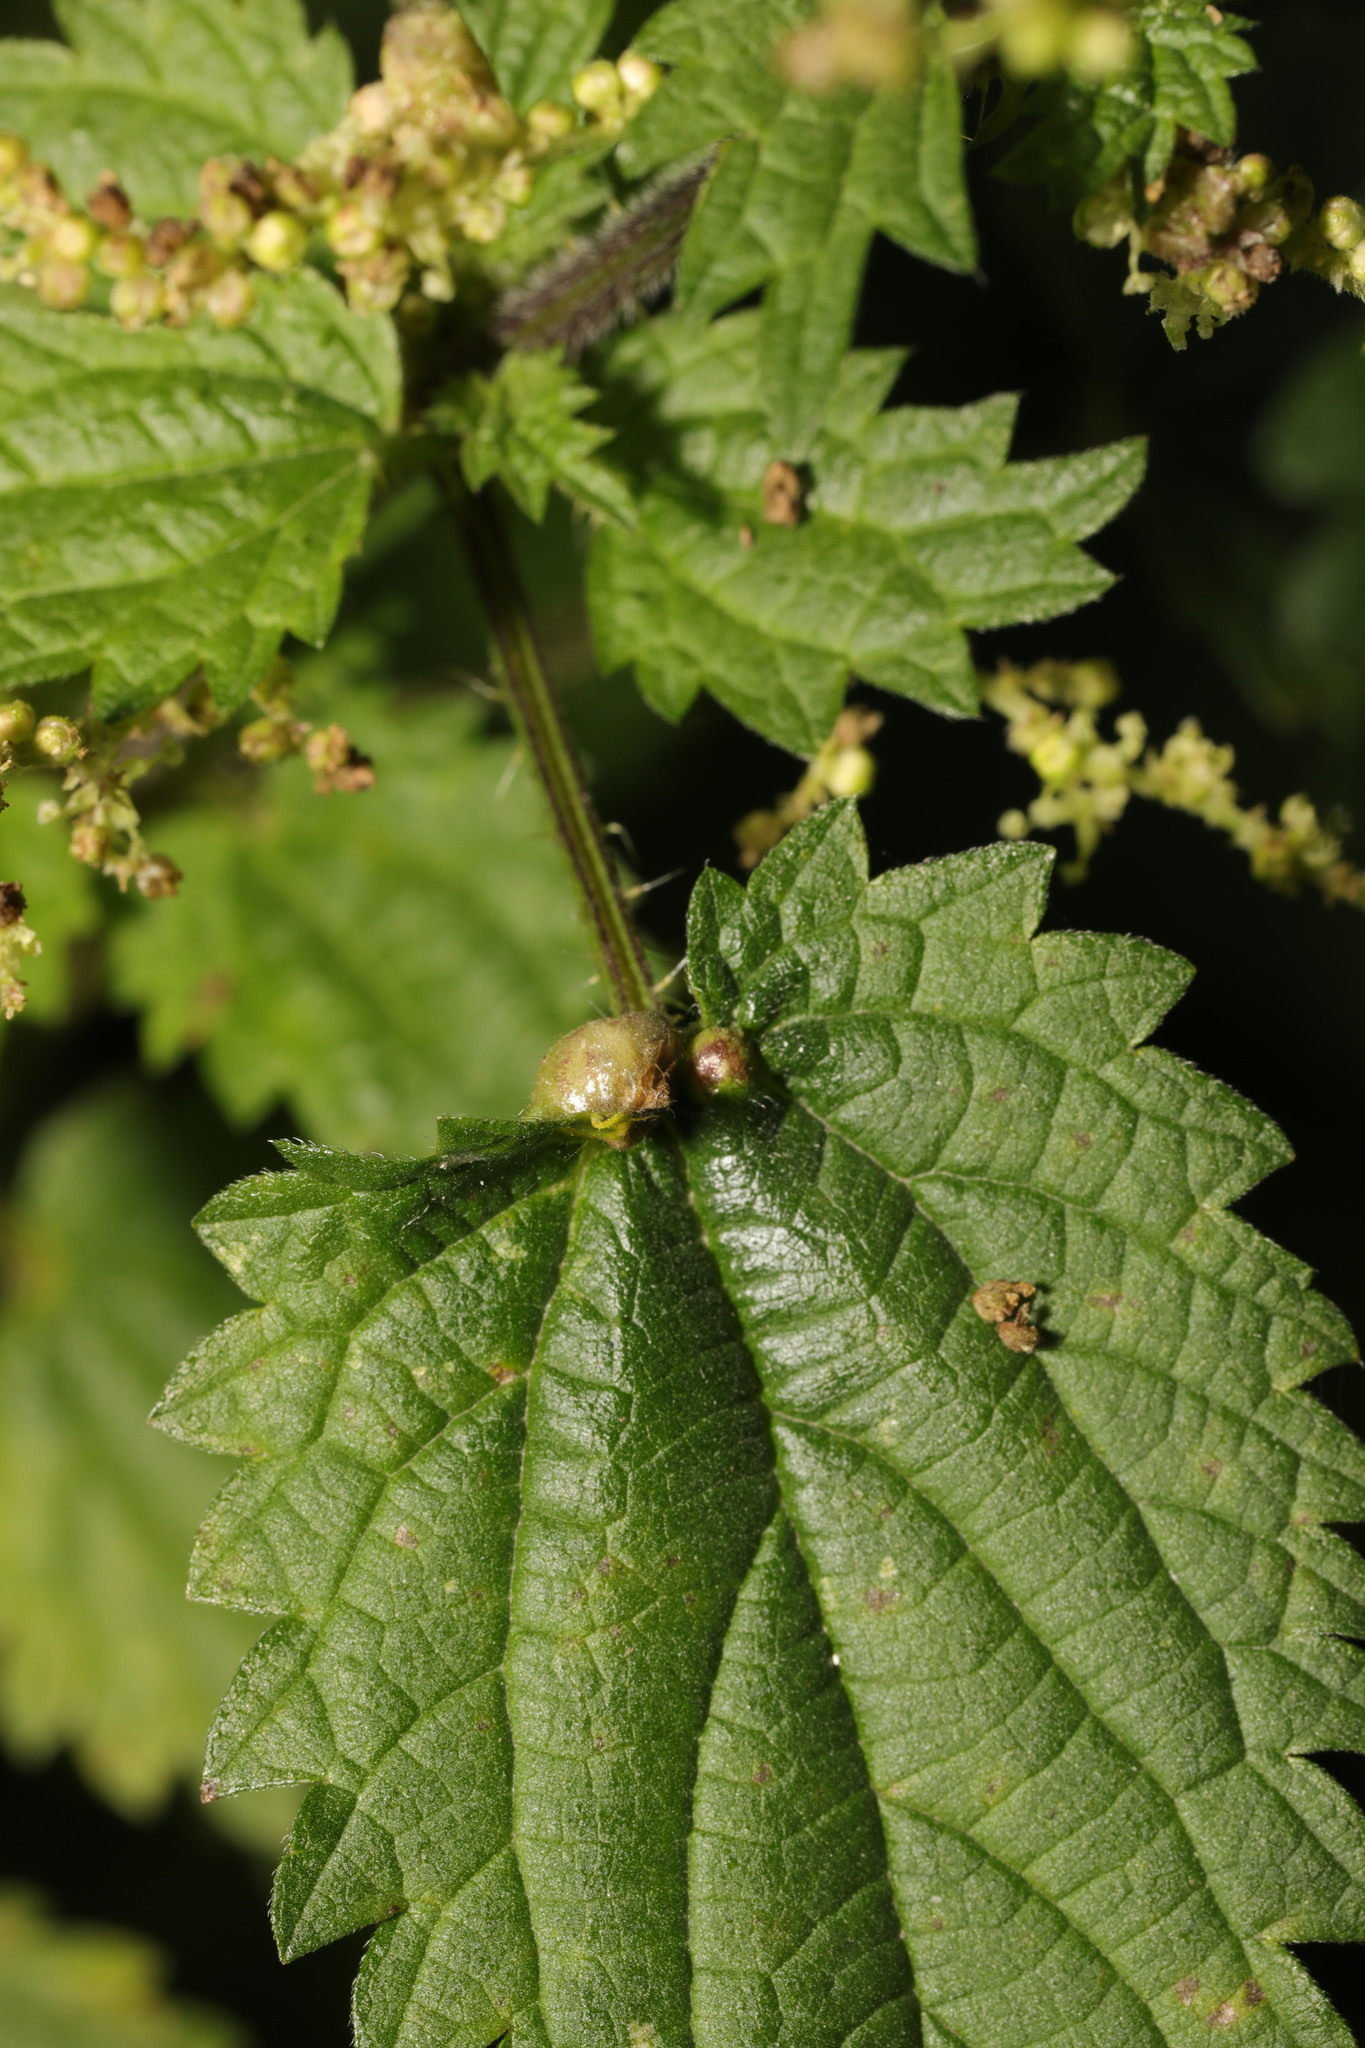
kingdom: Animalia
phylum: Arthropoda
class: Insecta
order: Diptera
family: Cecidomyiidae
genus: Dasineura
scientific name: Dasineura urticae
